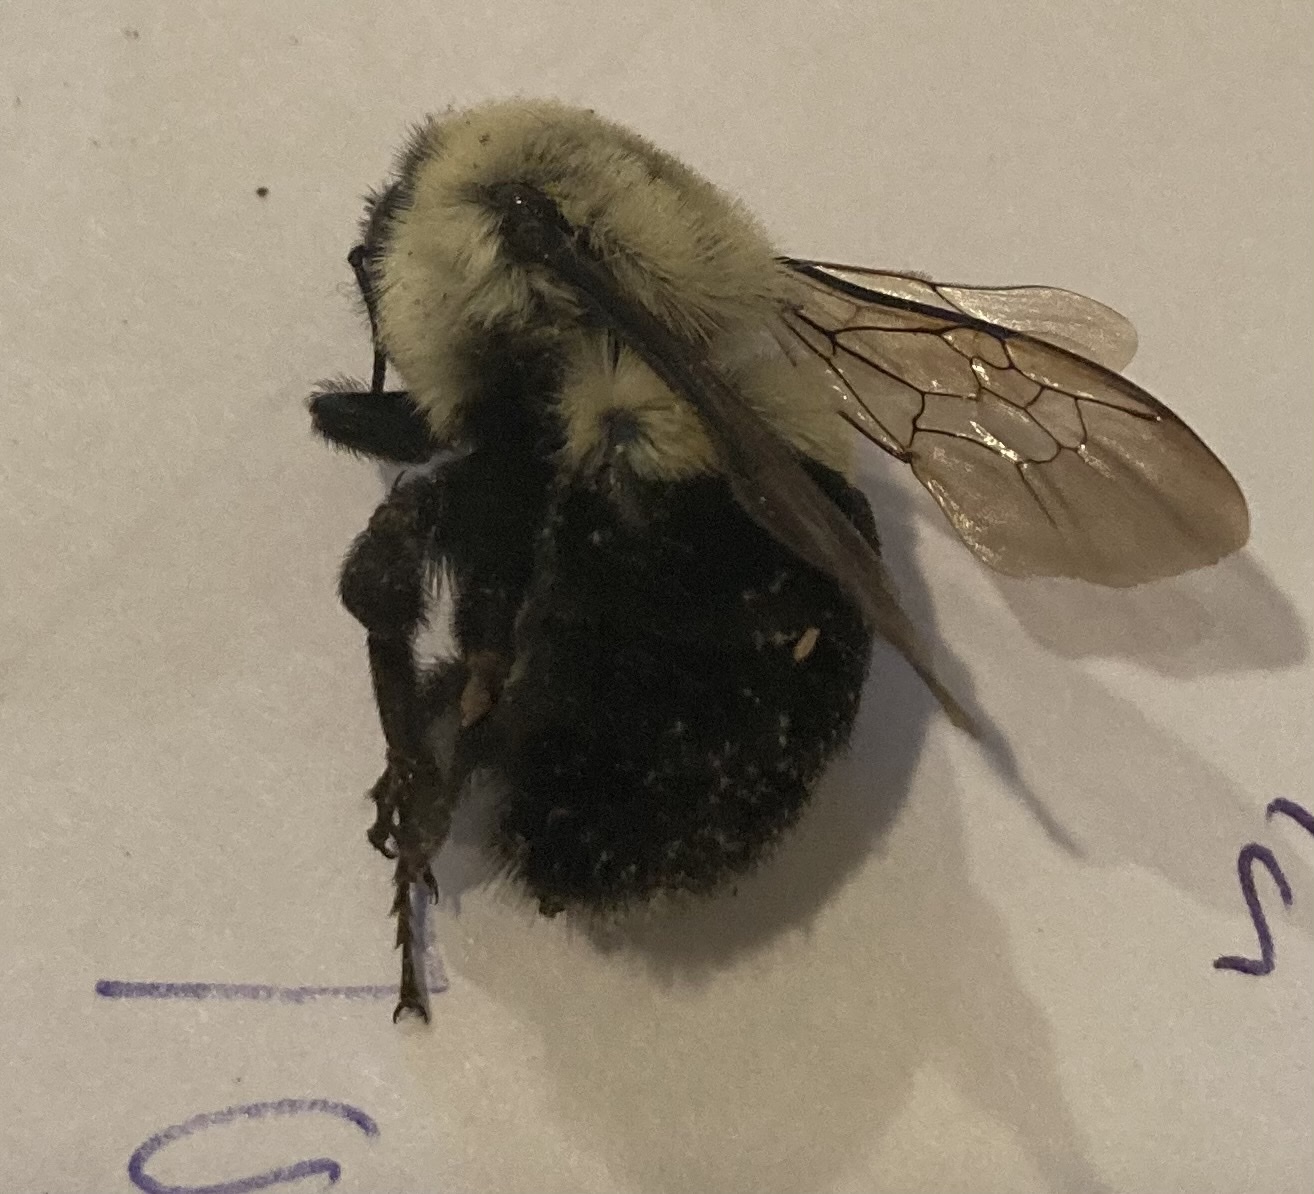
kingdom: Animalia
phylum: Arthropoda
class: Insecta
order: Hymenoptera
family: Apidae
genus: Bombus
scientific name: Bombus impatiens
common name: Common eastern bumble bee
